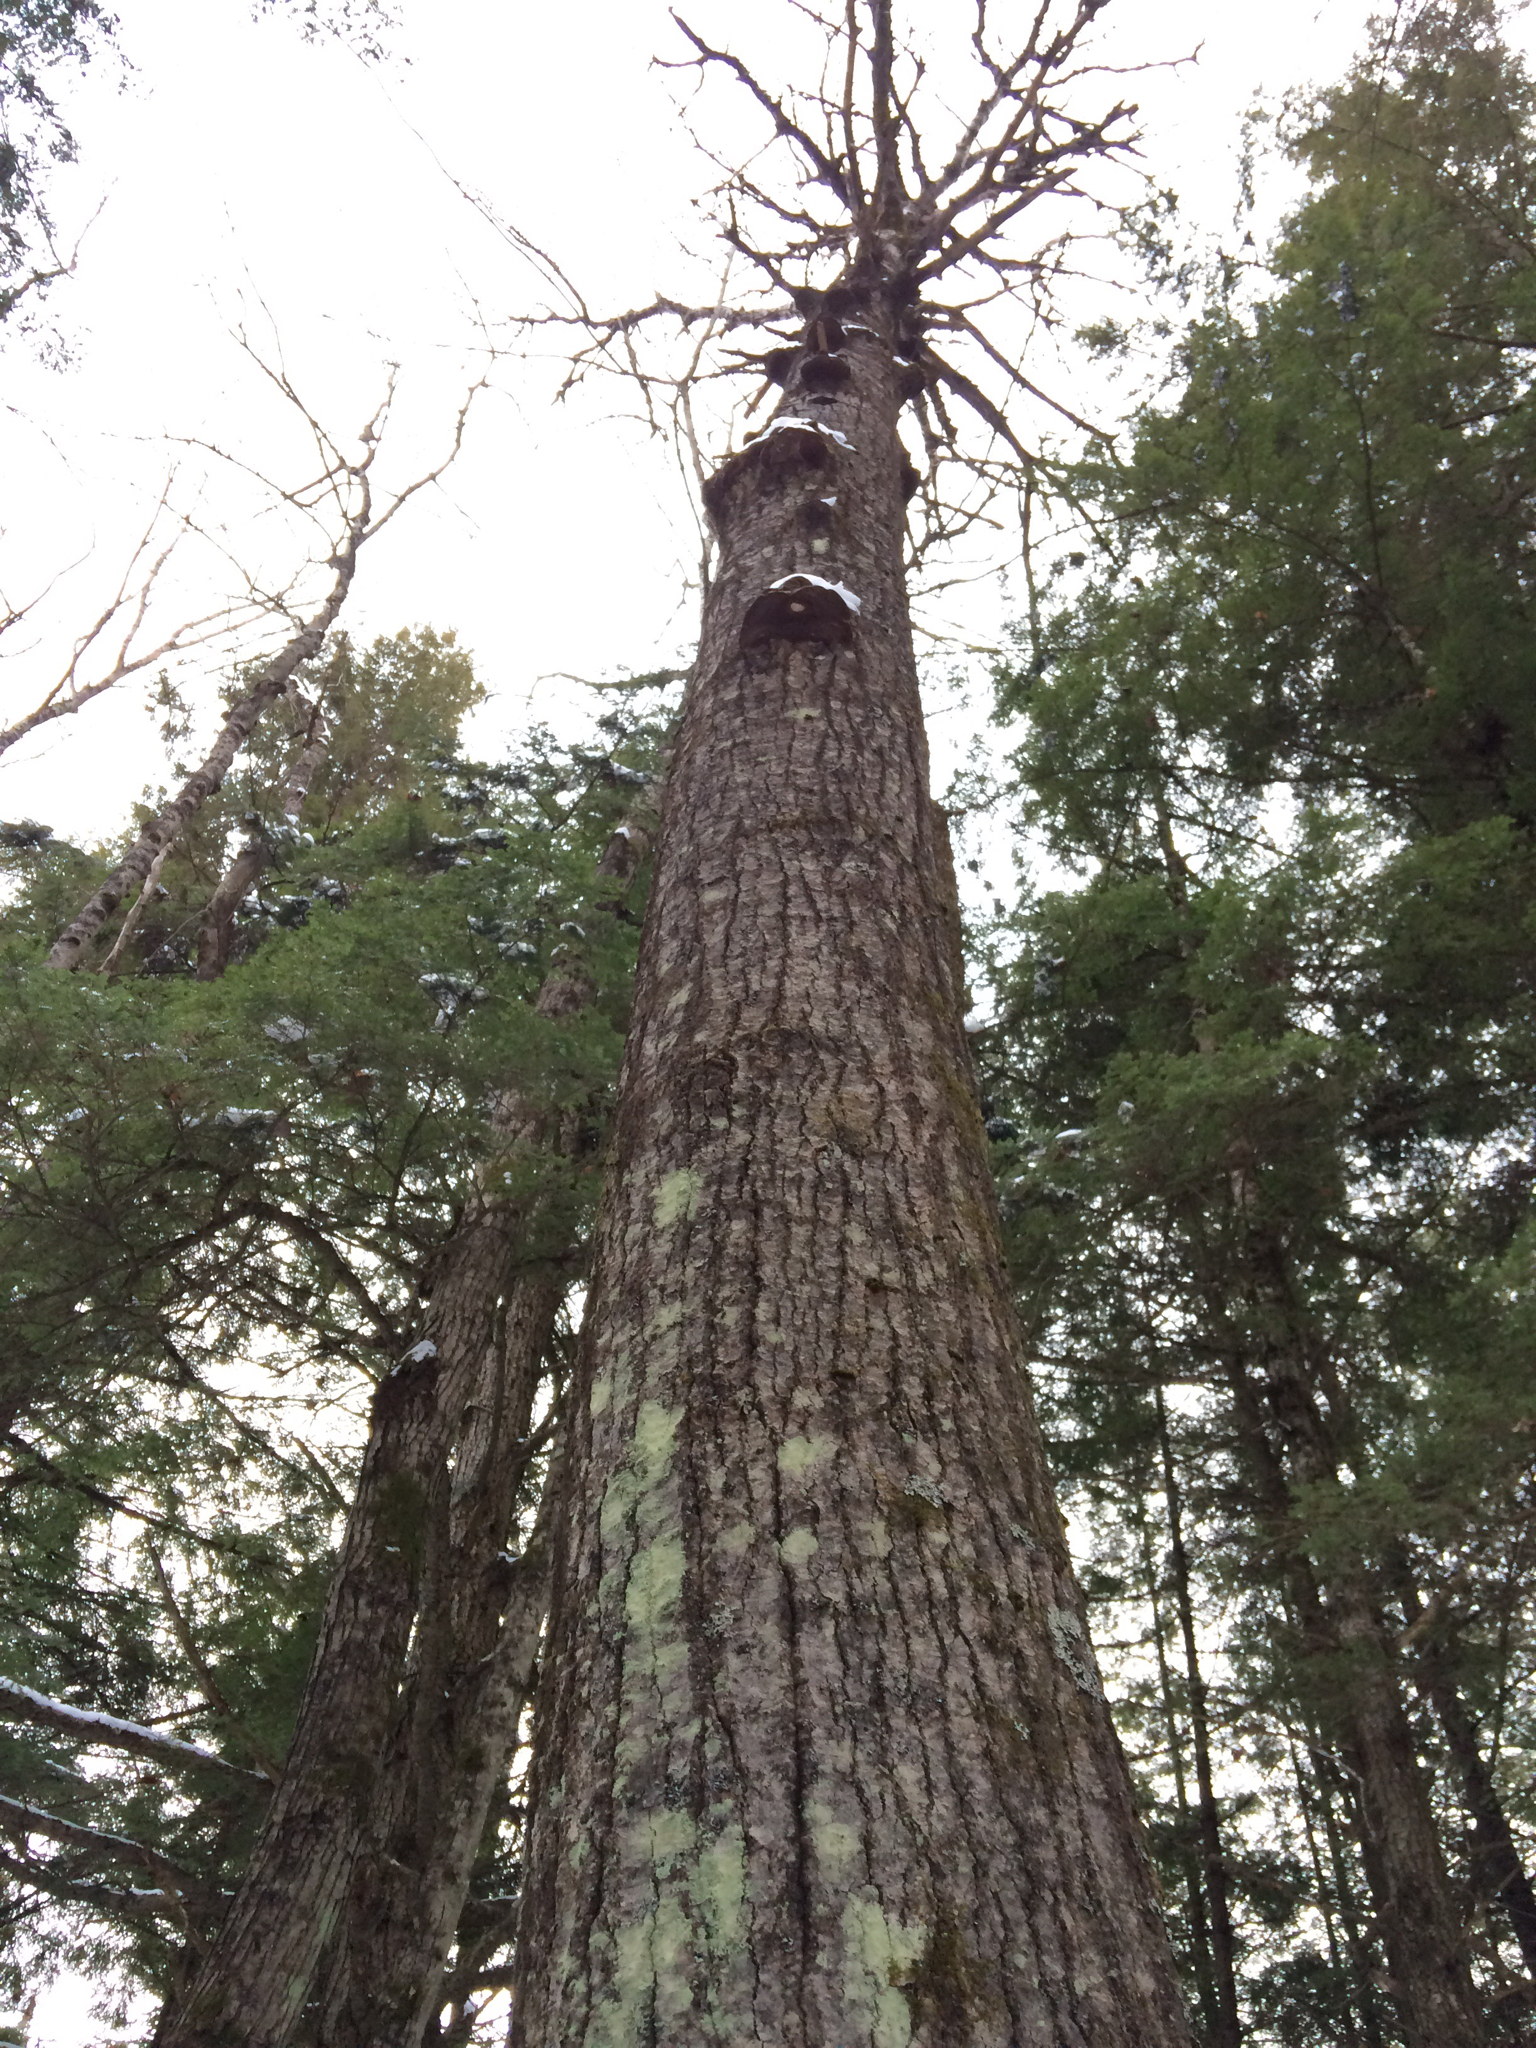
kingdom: Plantae
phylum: Tracheophyta
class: Magnoliopsida
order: Malpighiales
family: Salicaceae
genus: Populus
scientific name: Populus grandidentata
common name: Bigtooth aspen
